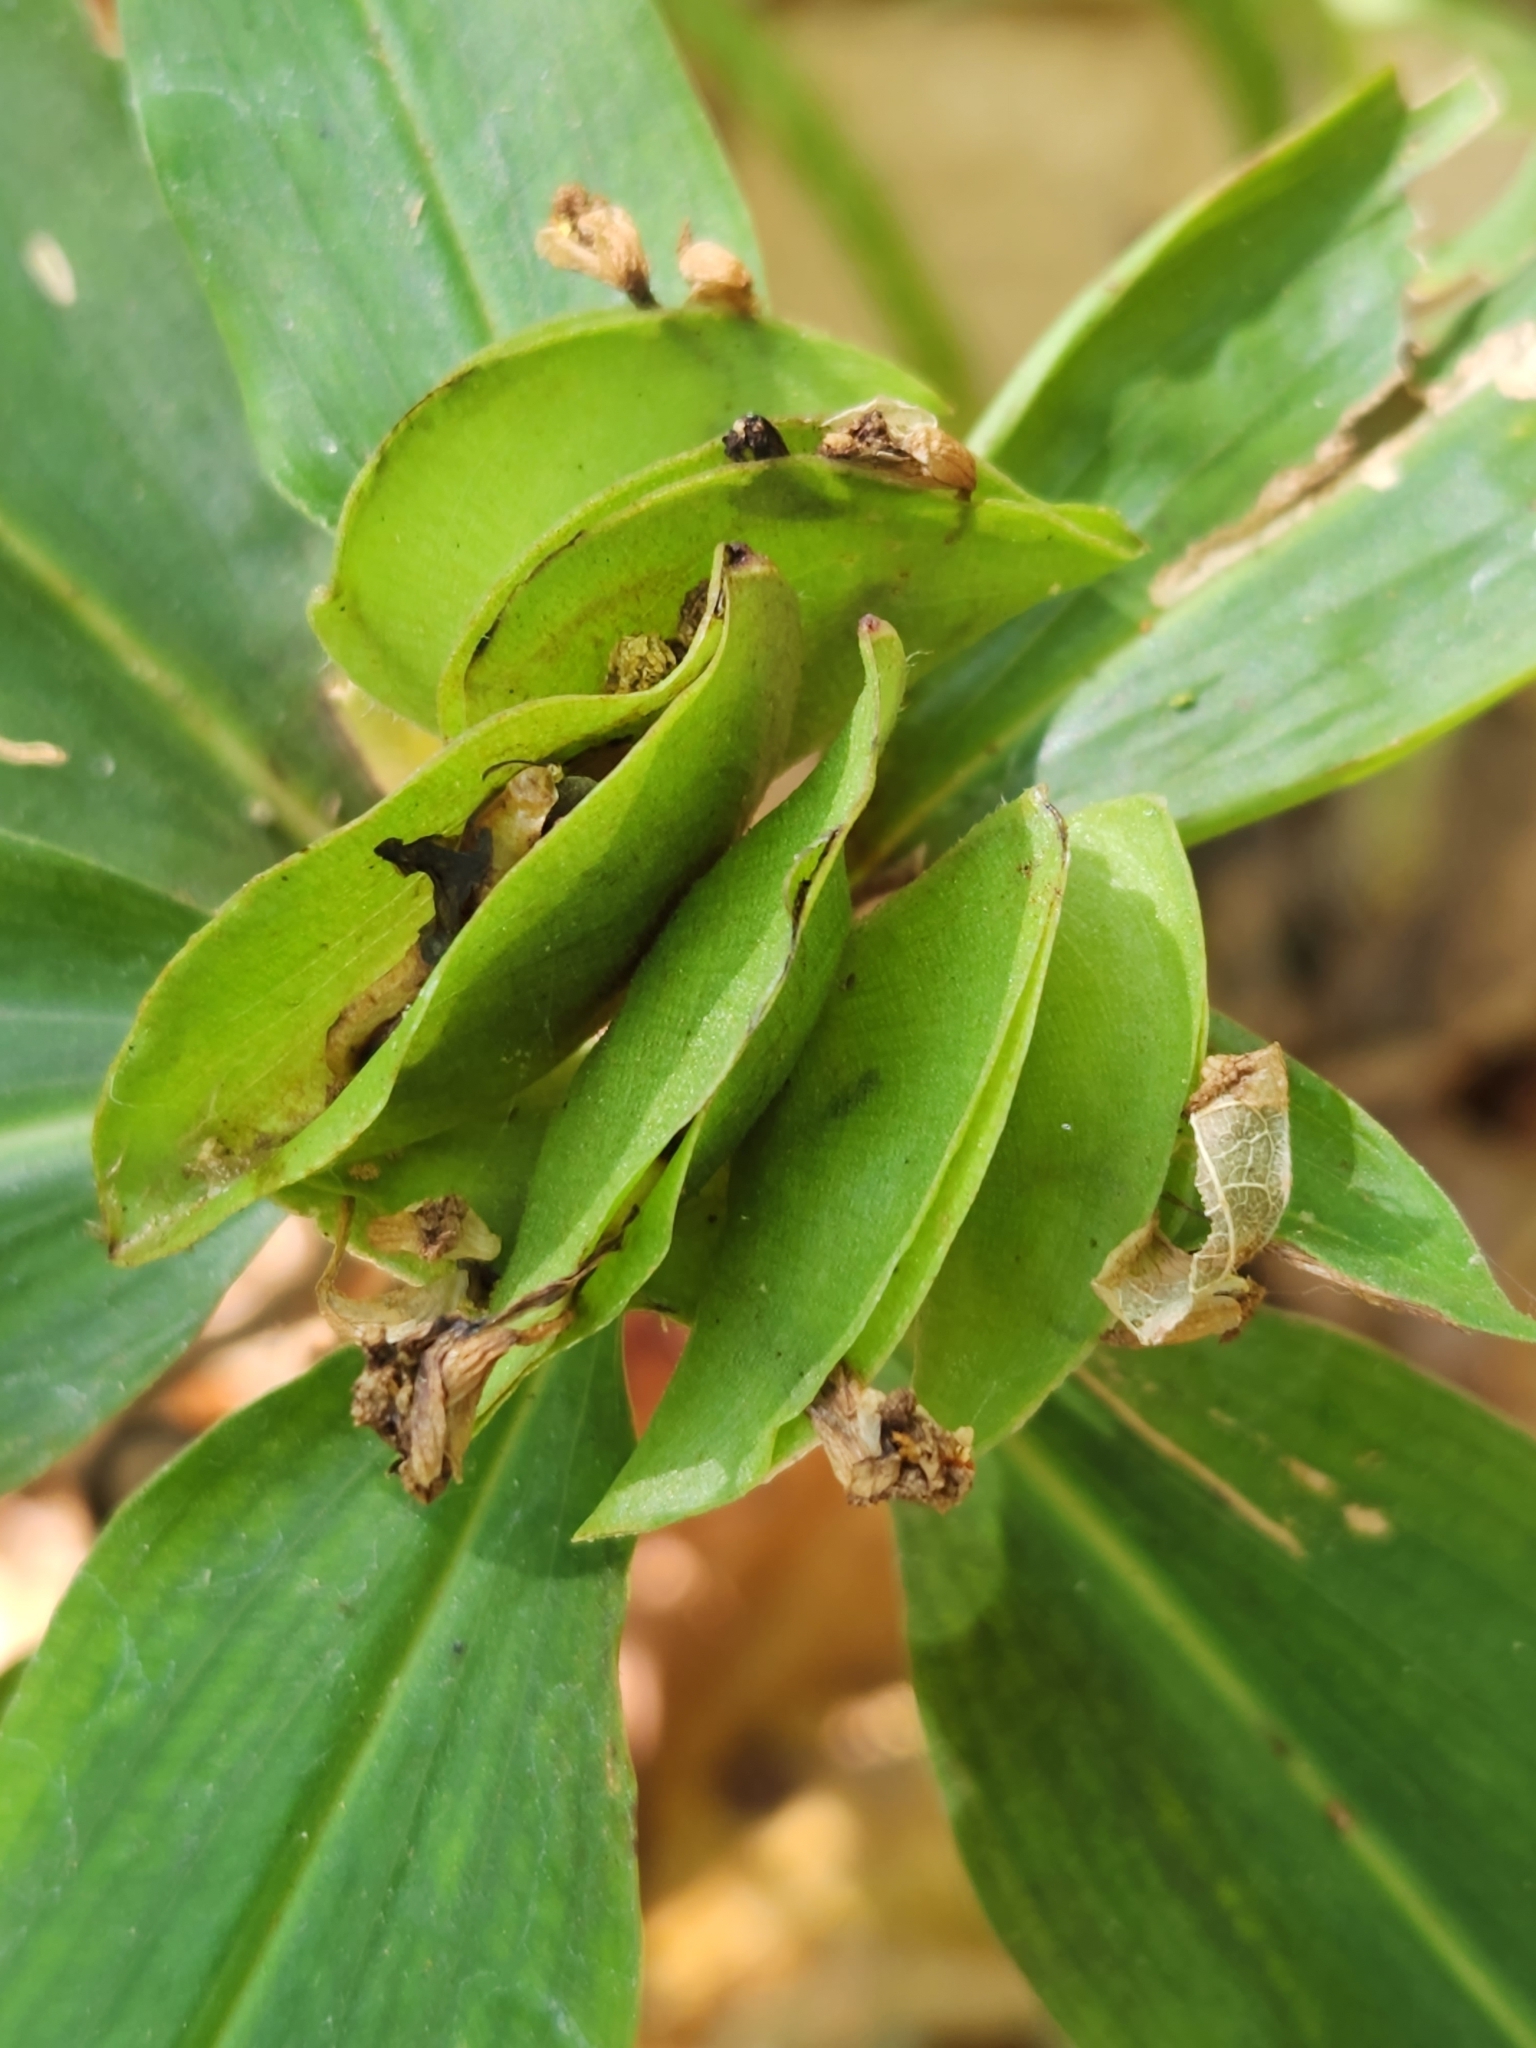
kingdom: Plantae
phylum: Tracheophyta
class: Liliopsida
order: Commelinales
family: Commelinaceae
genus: Commelina
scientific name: Commelina virginica
